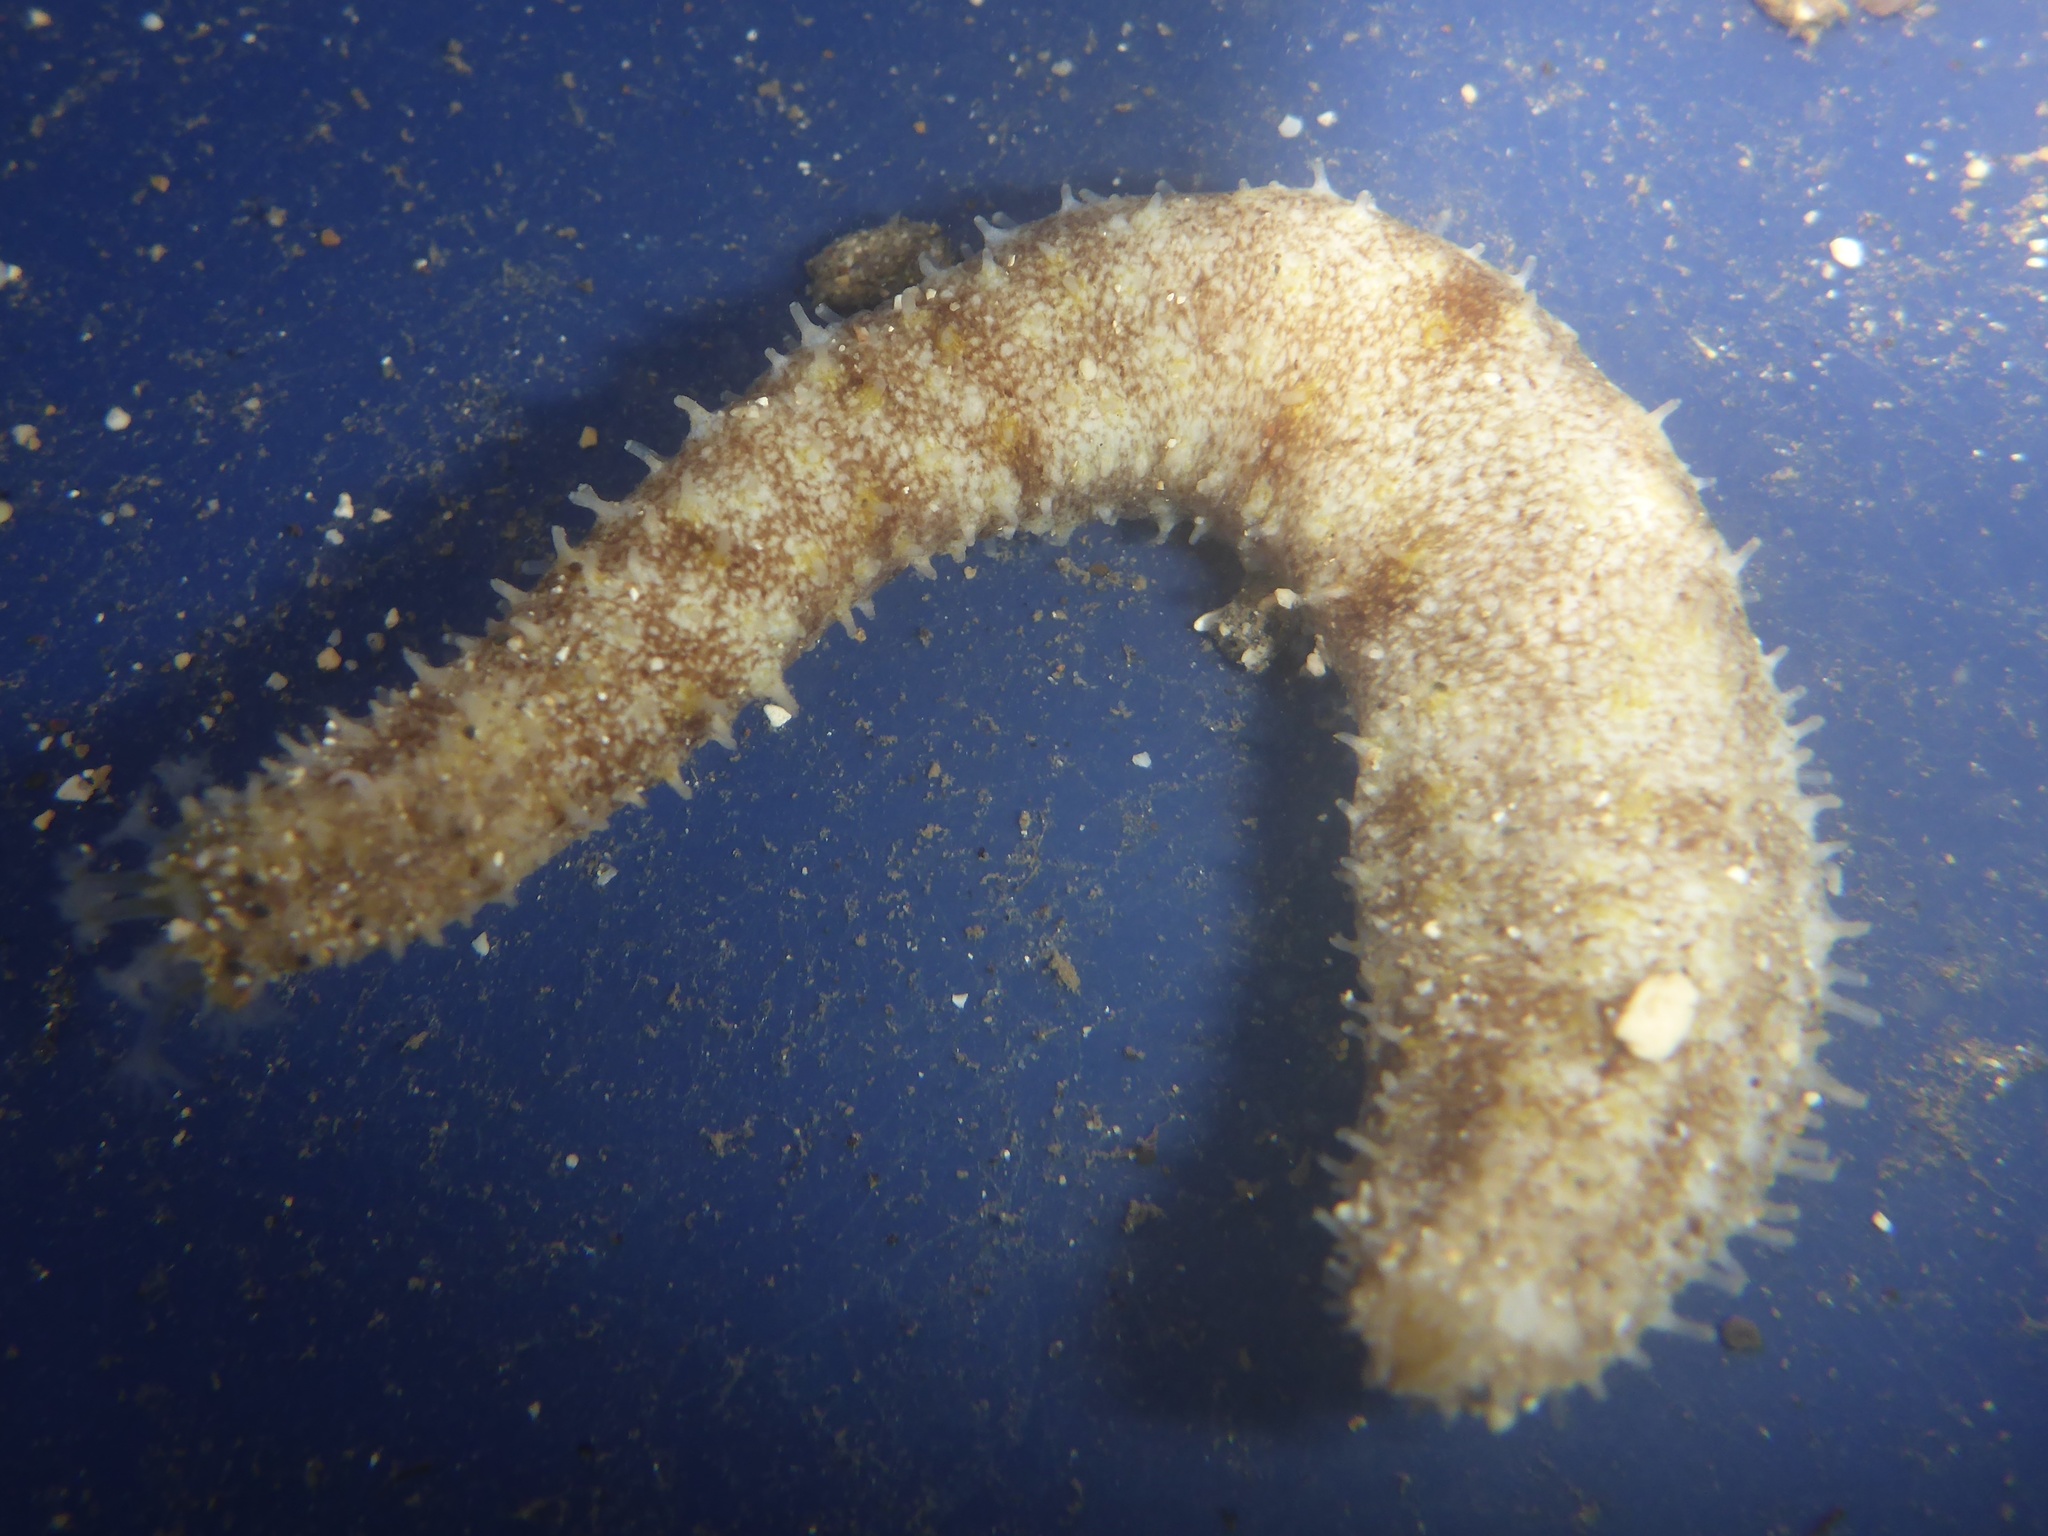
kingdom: Animalia
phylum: Echinodermata
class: Holothuroidea
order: Holothuriida
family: Holothuriidae
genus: Holothuria
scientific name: Holothuria lineata
